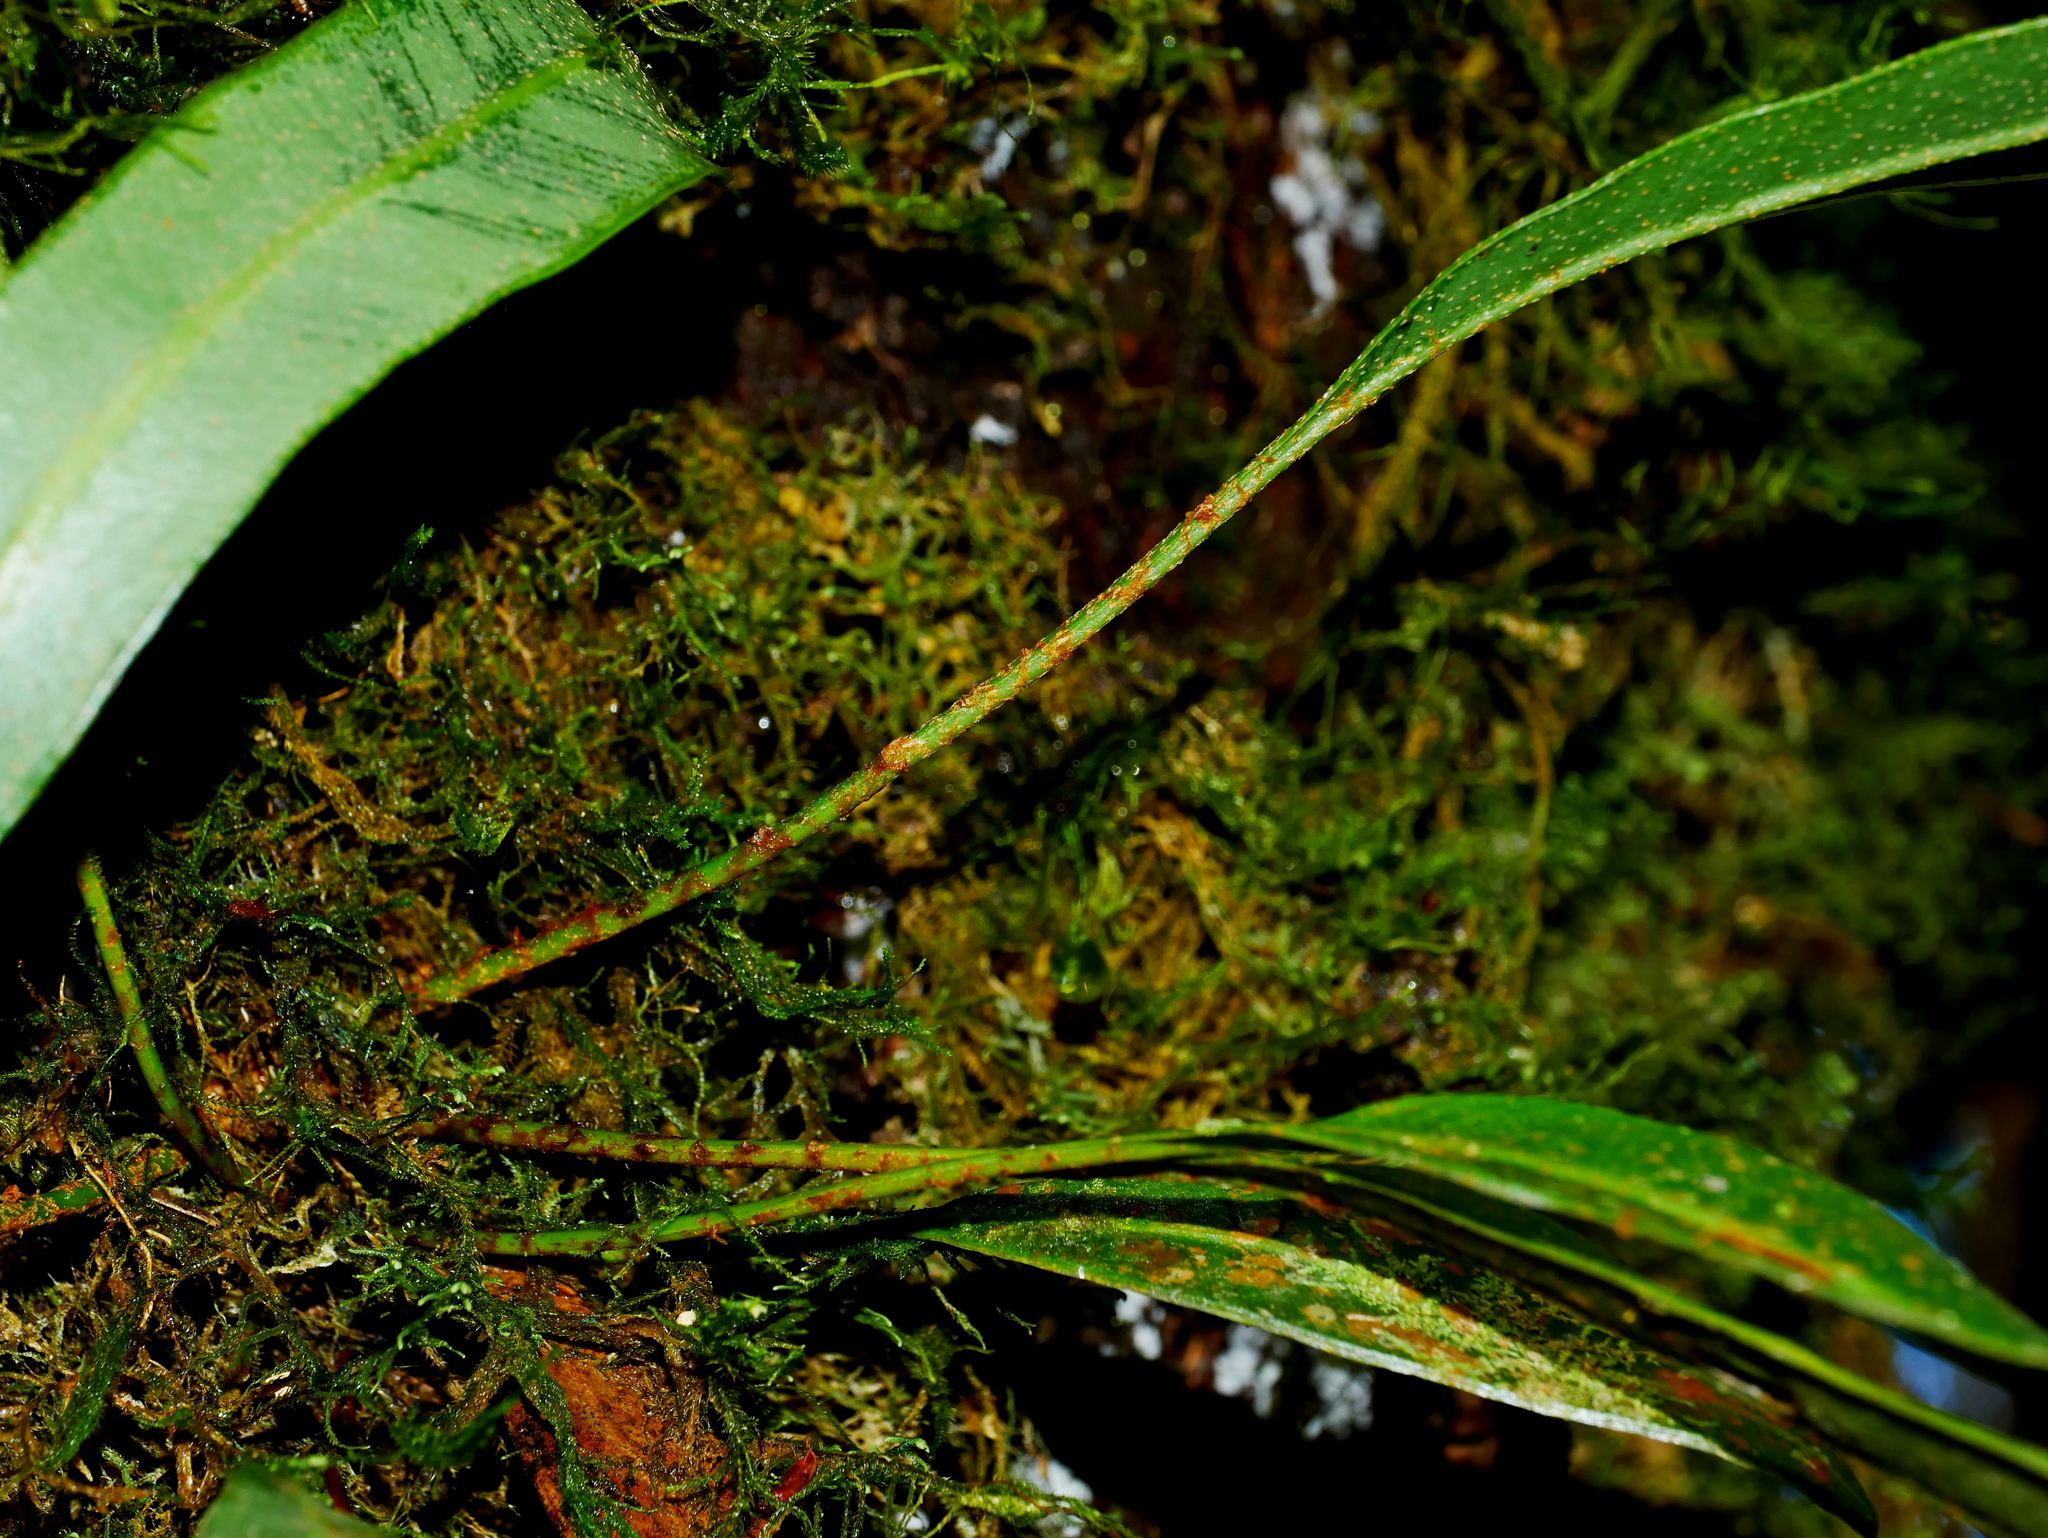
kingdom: Plantae
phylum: Tracheophyta
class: Polypodiopsida
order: Polypodiales
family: Dryopteridaceae
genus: Elaphoglossum
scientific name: Elaphoglossum marginatum
